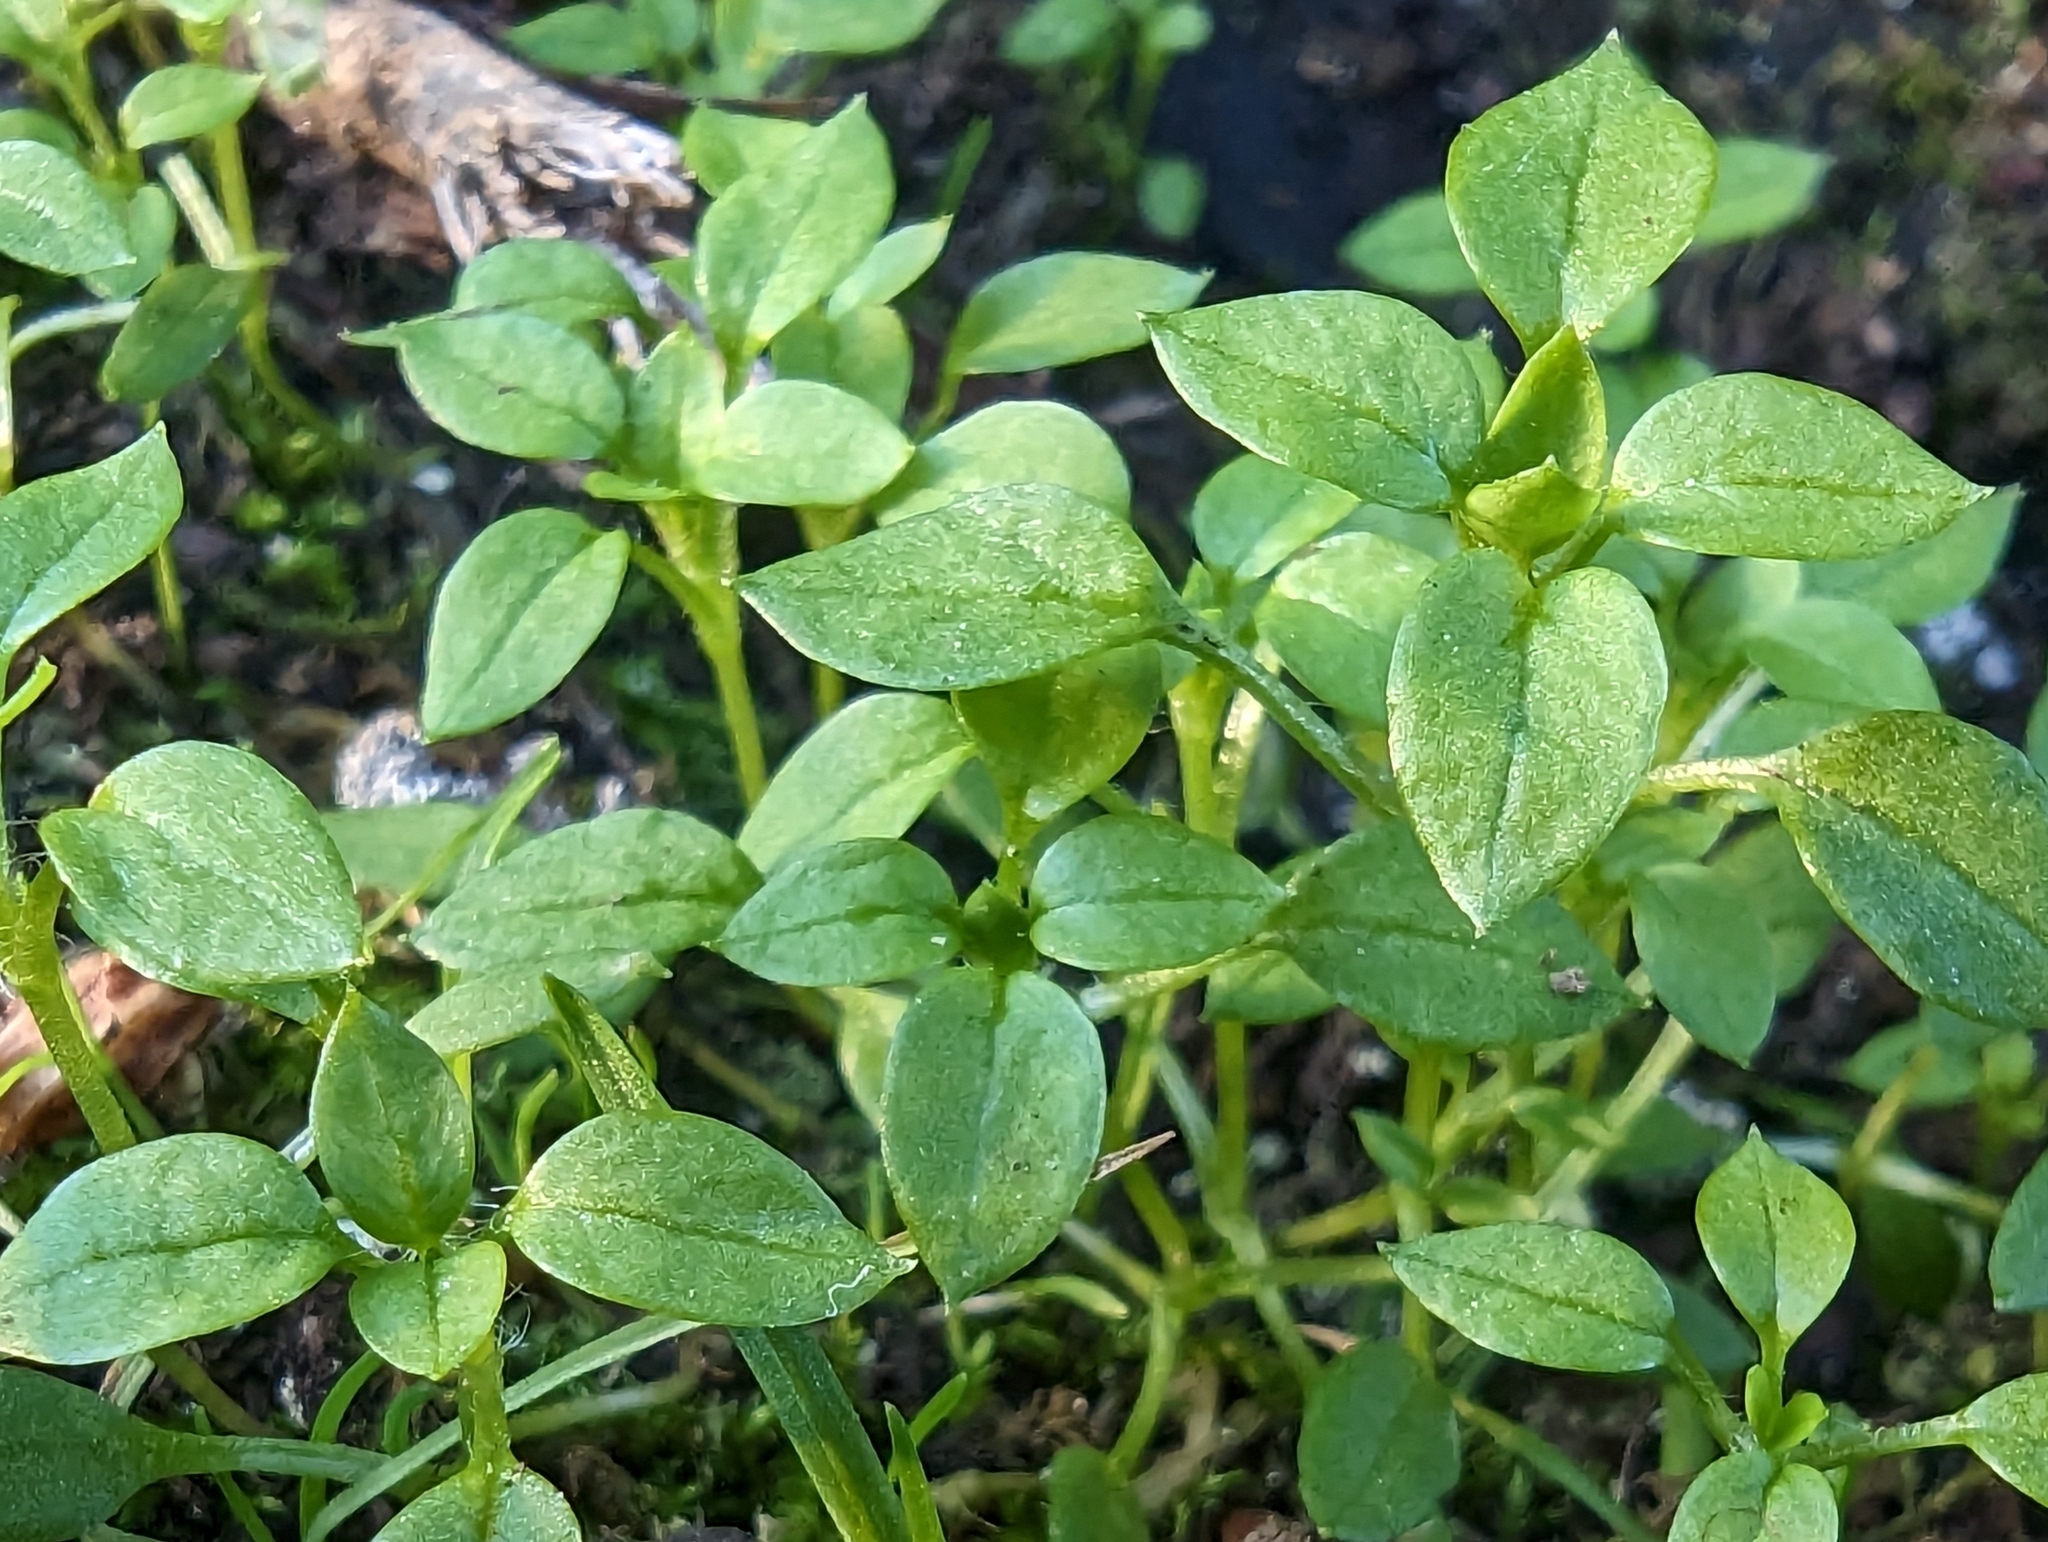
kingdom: Plantae
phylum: Tracheophyta
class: Magnoliopsida
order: Caryophyllales
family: Caryophyllaceae
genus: Stellaria
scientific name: Stellaria media
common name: Common chickweed
